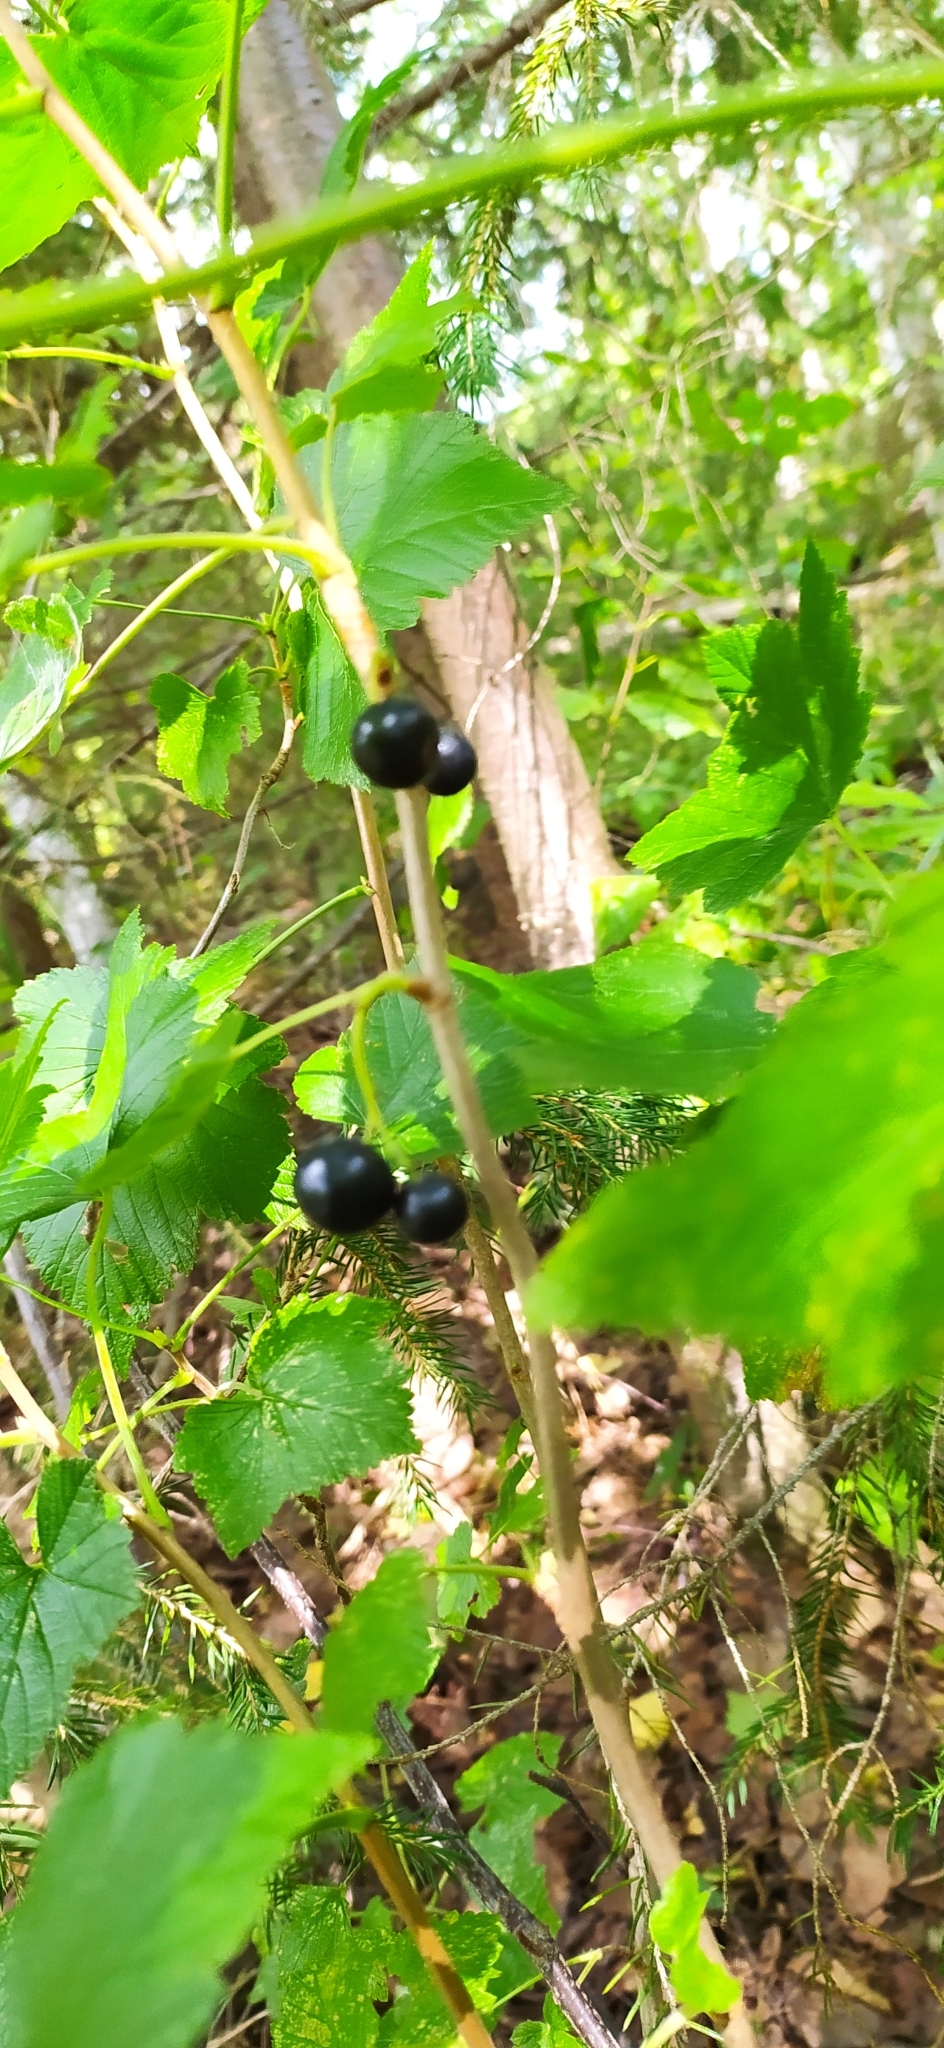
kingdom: Plantae
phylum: Tracheophyta
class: Magnoliopsida
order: Saxifragales
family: Grossulariaceae
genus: Ribes
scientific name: Ribes nigrum
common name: Black currant
